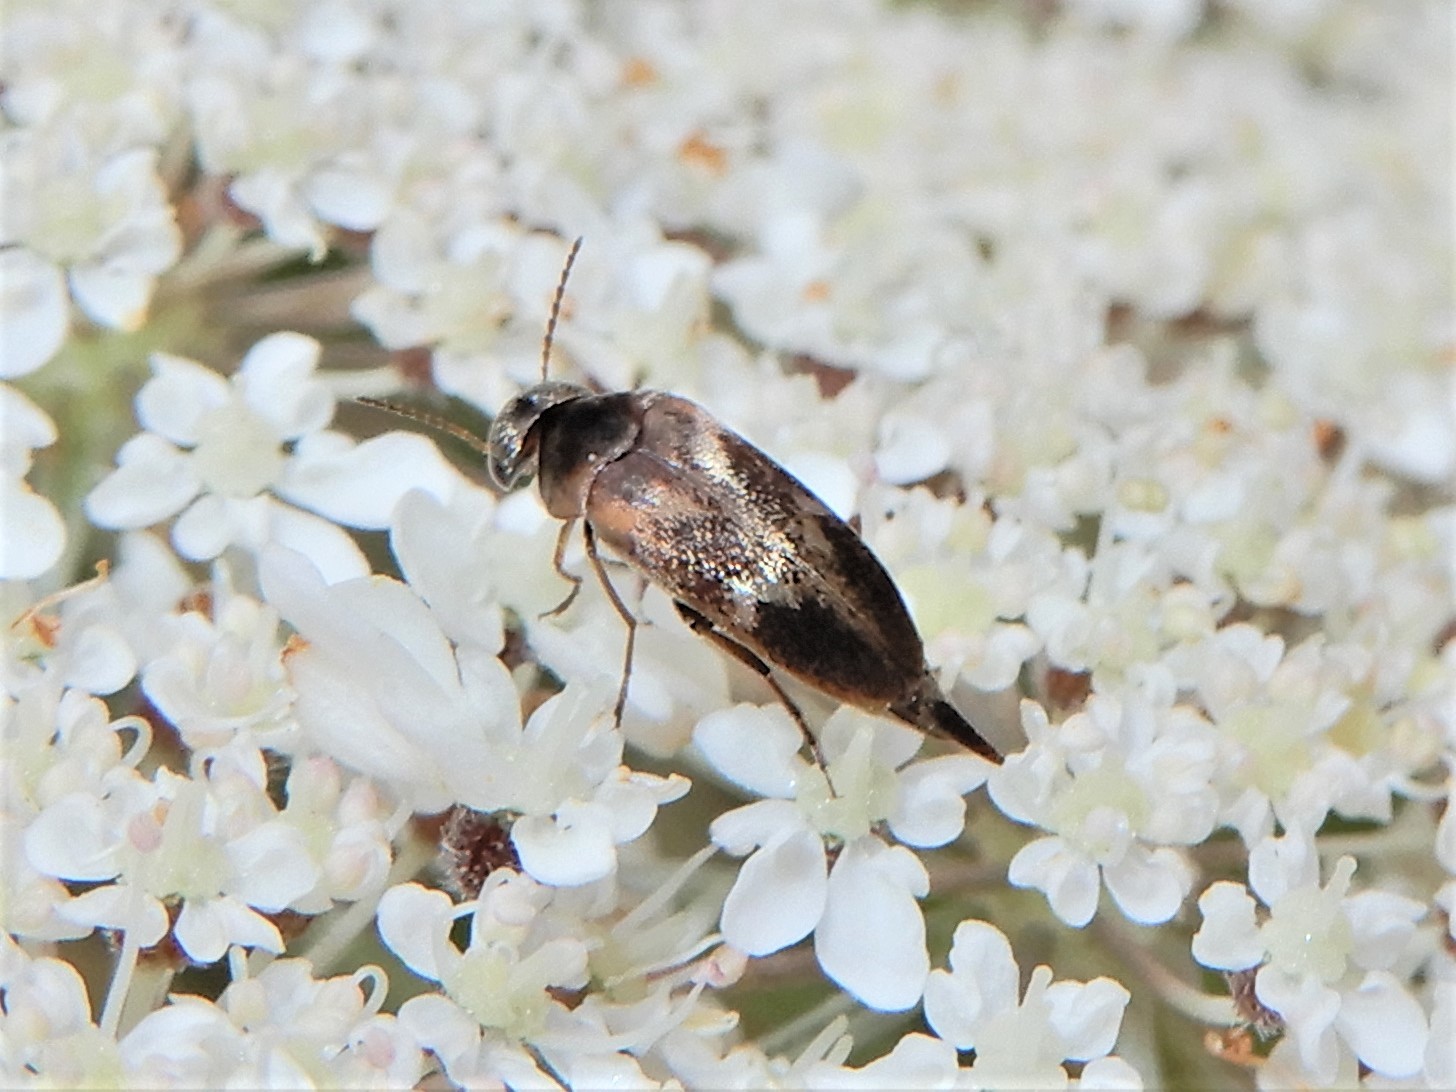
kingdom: Animalia
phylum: Arthropoda
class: Insecta
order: Coleoptera
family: Mordellidae
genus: Mordella
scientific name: Mordella
